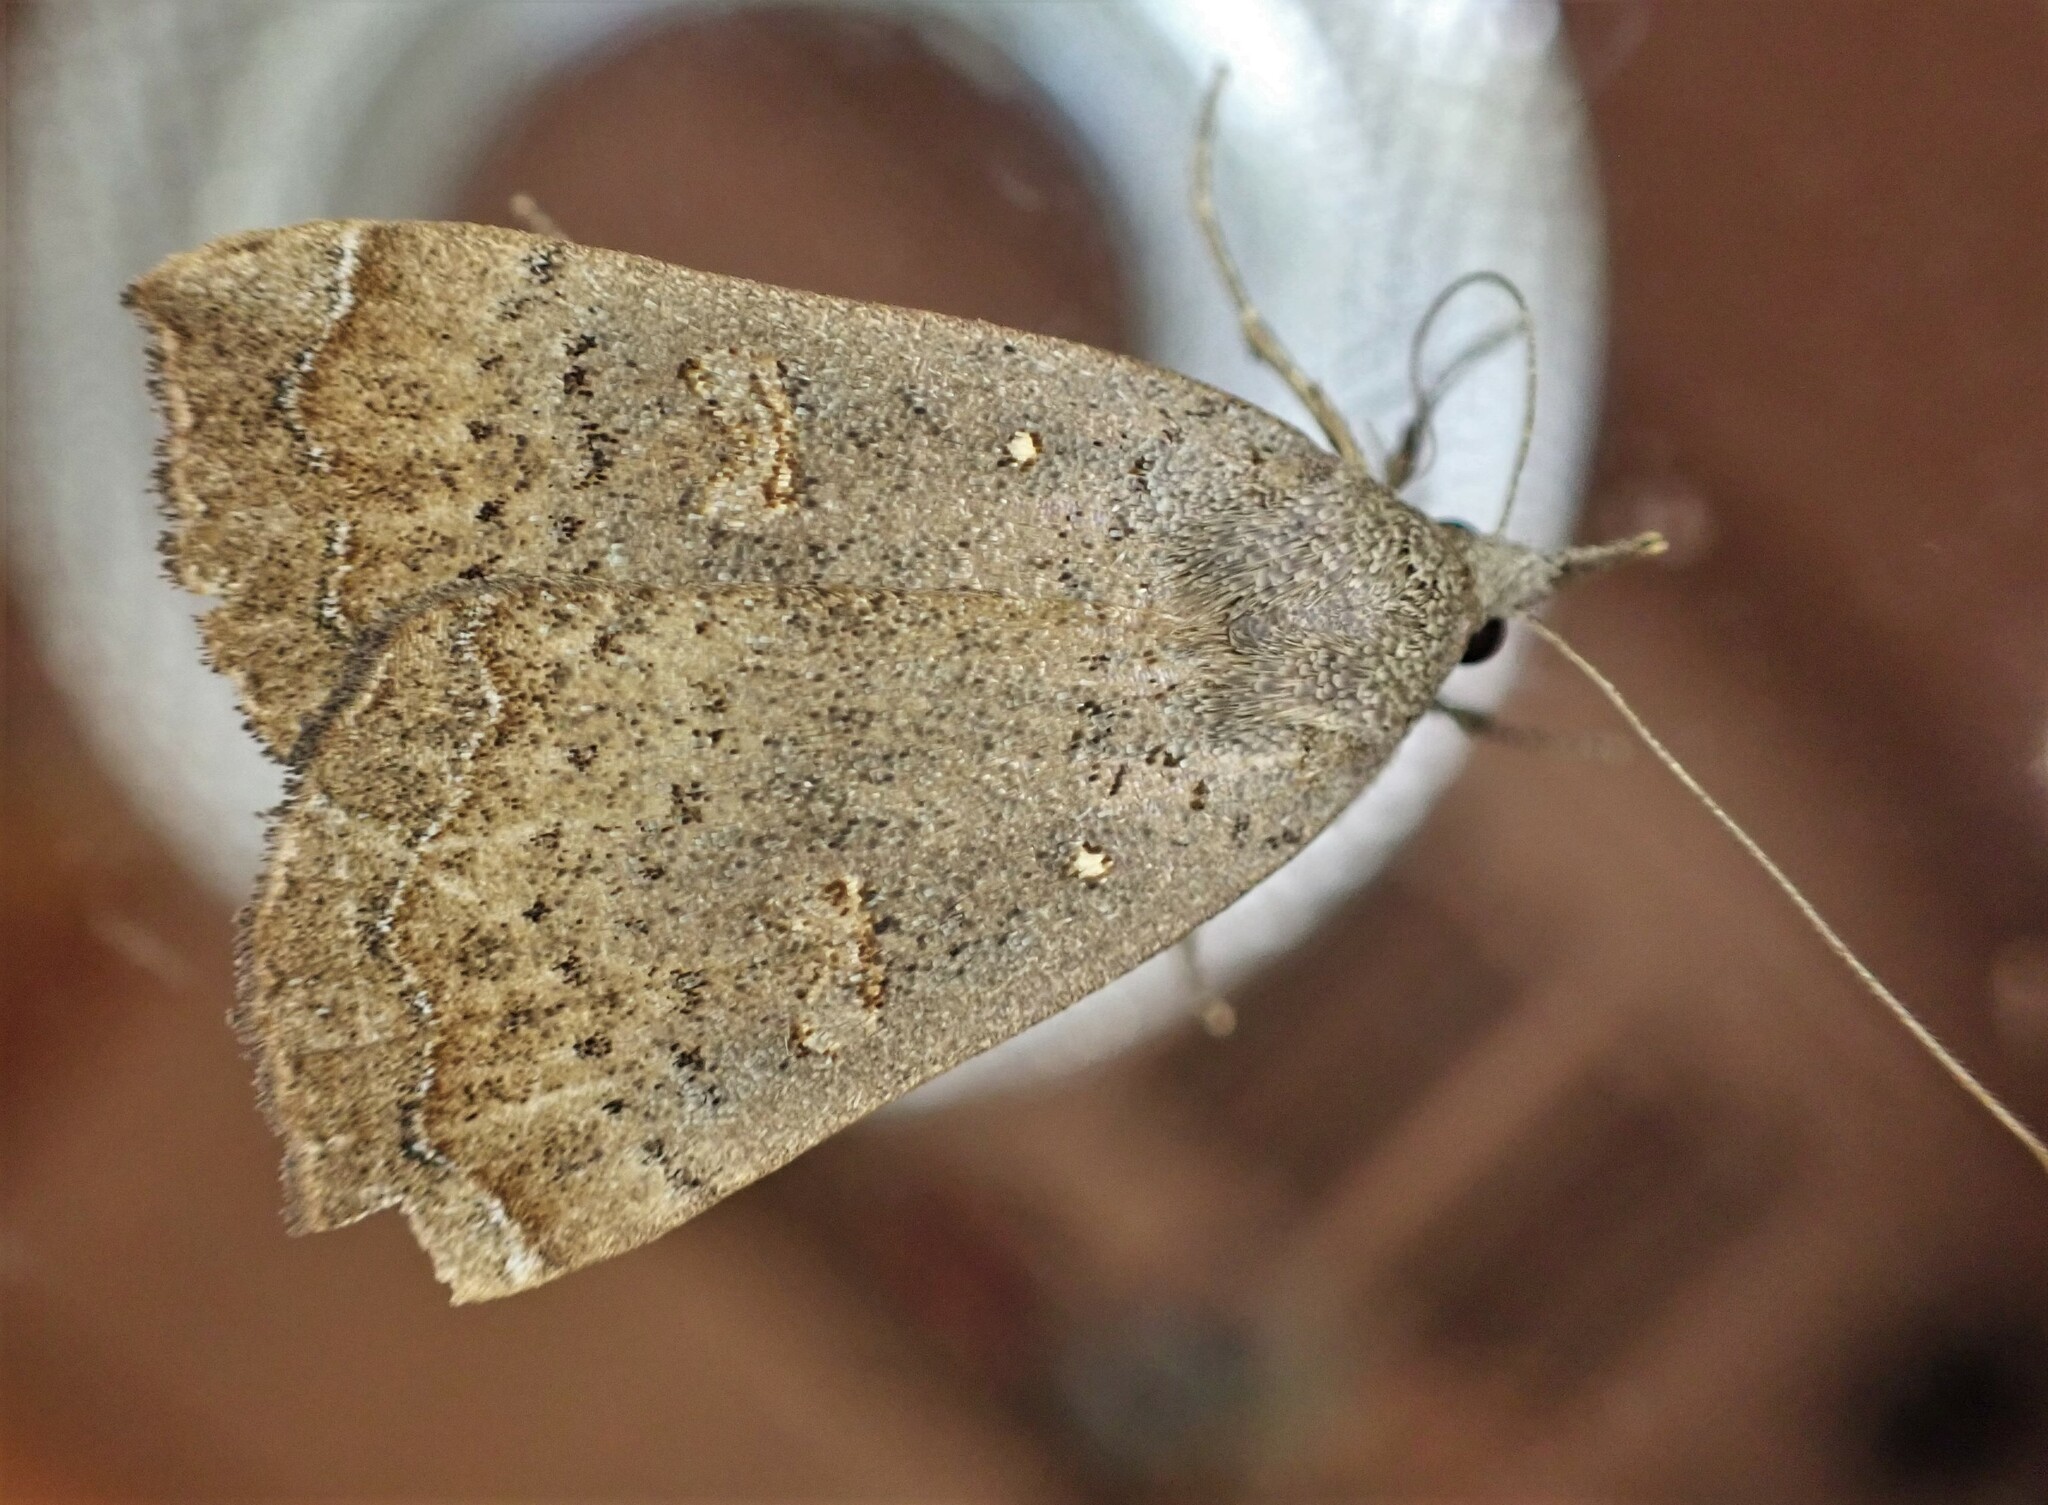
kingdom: Animalia
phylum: Arthropoda
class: Insecta
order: Lepidoptera
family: Erebidae
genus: Rhapsa
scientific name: Rhapsa scotosialis
